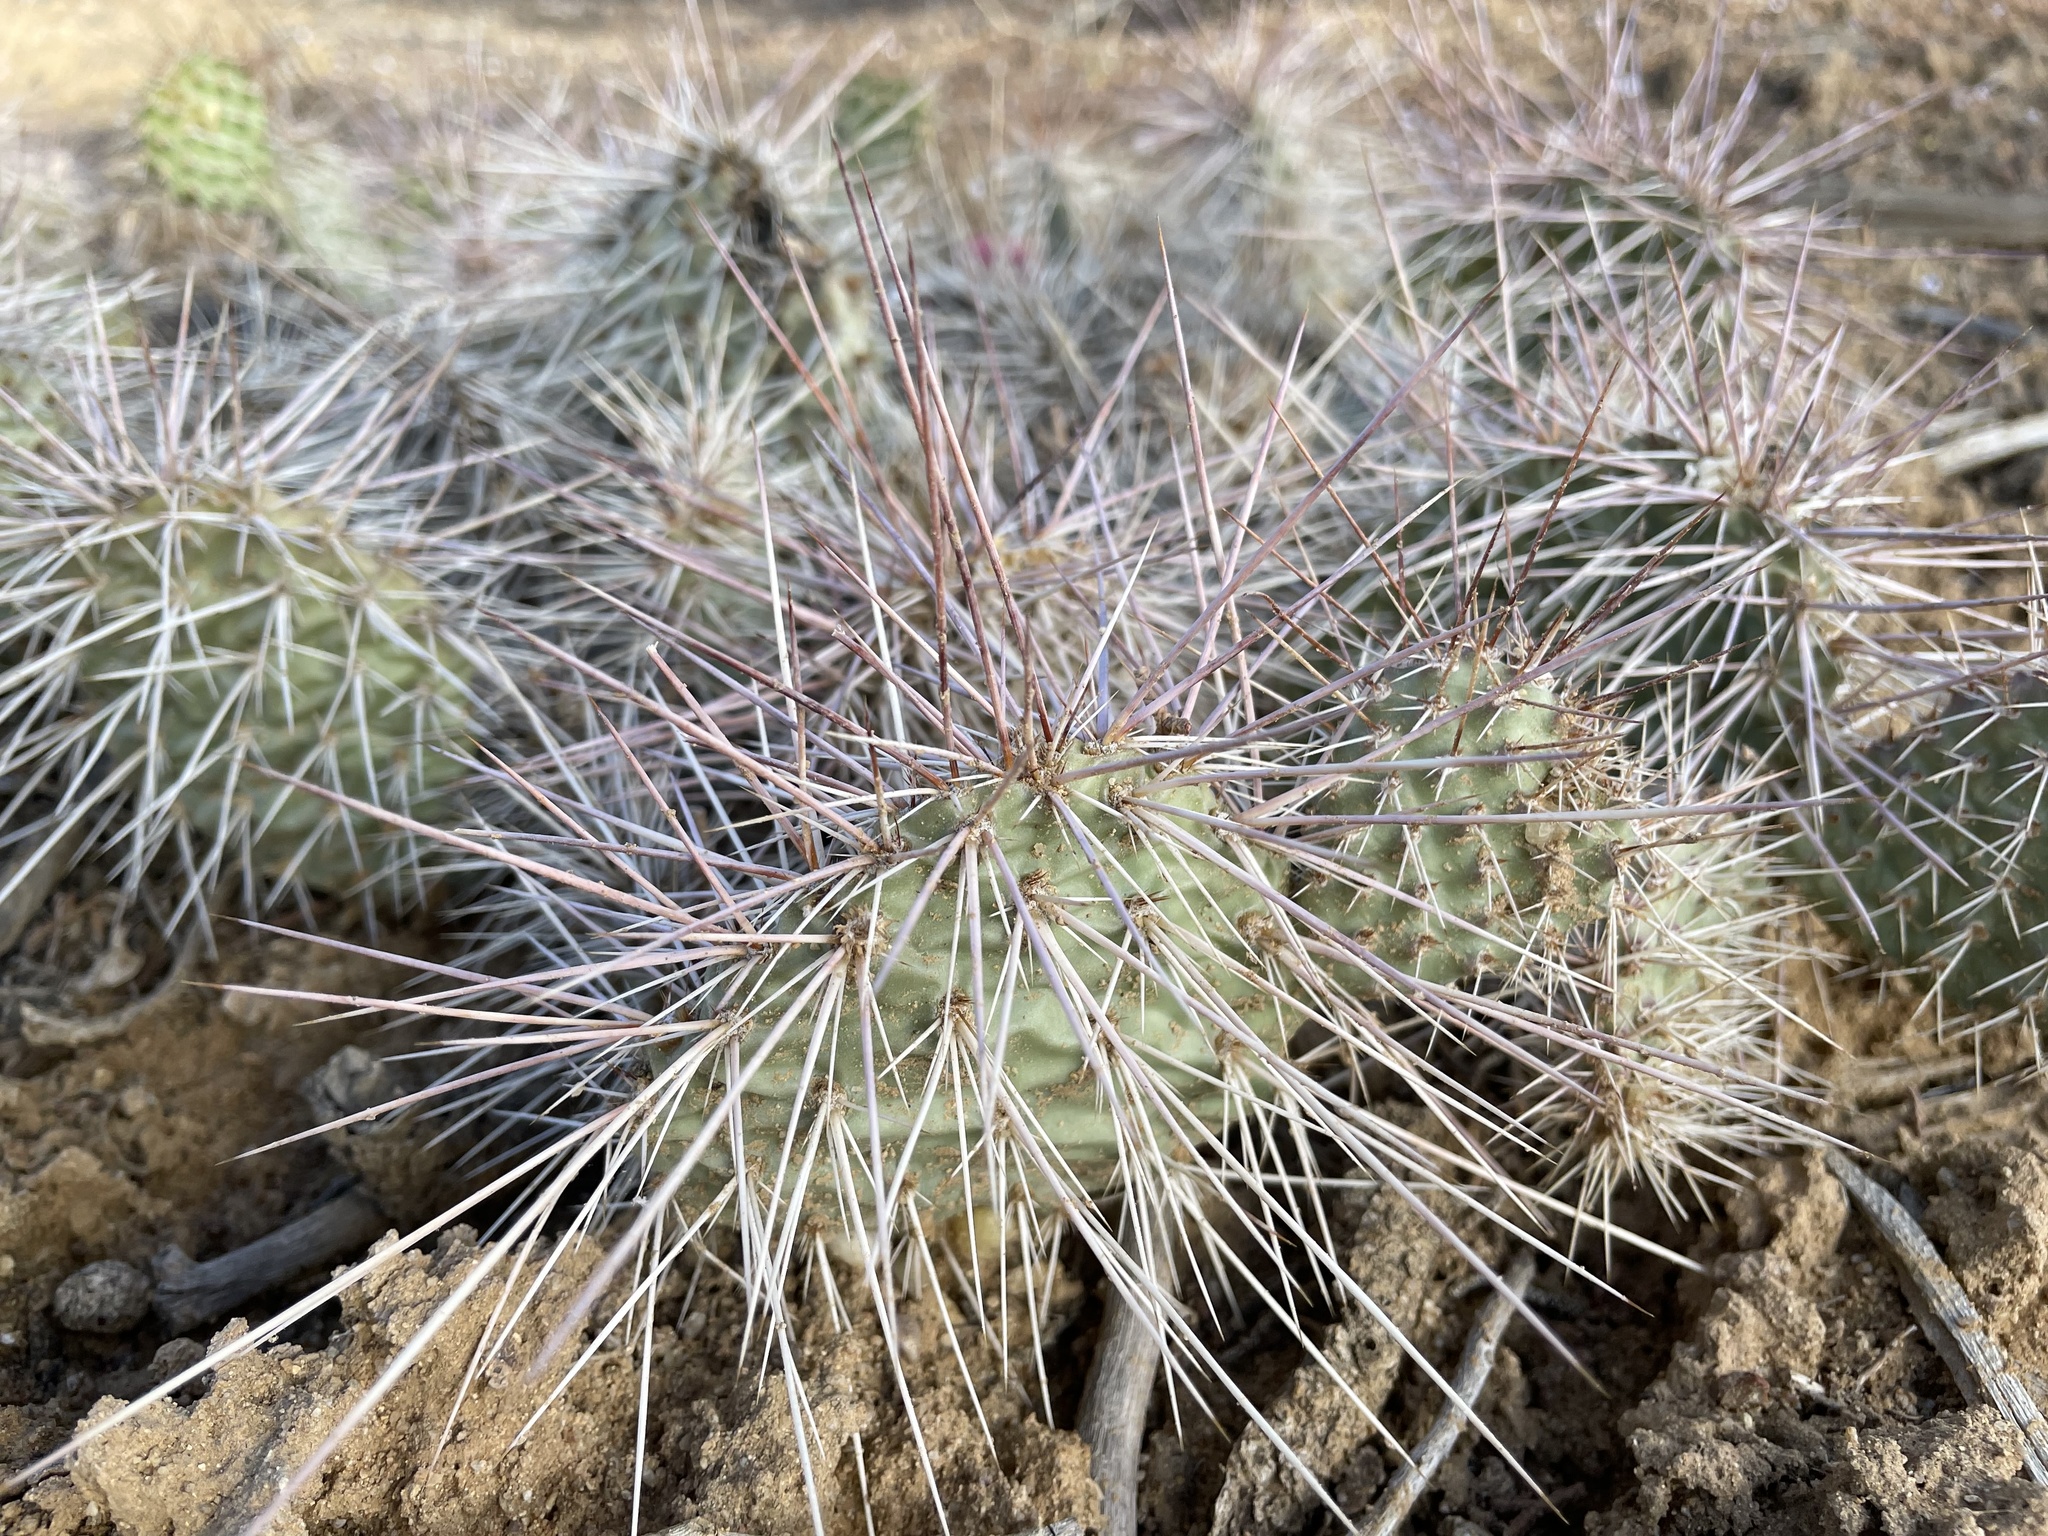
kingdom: Plantae
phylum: Tracheophyta
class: Magnoliopsida
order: Caryophyllales
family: Cactaceae
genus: Opuntia
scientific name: Opuntia polyacantha
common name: Plains prickly-pear
